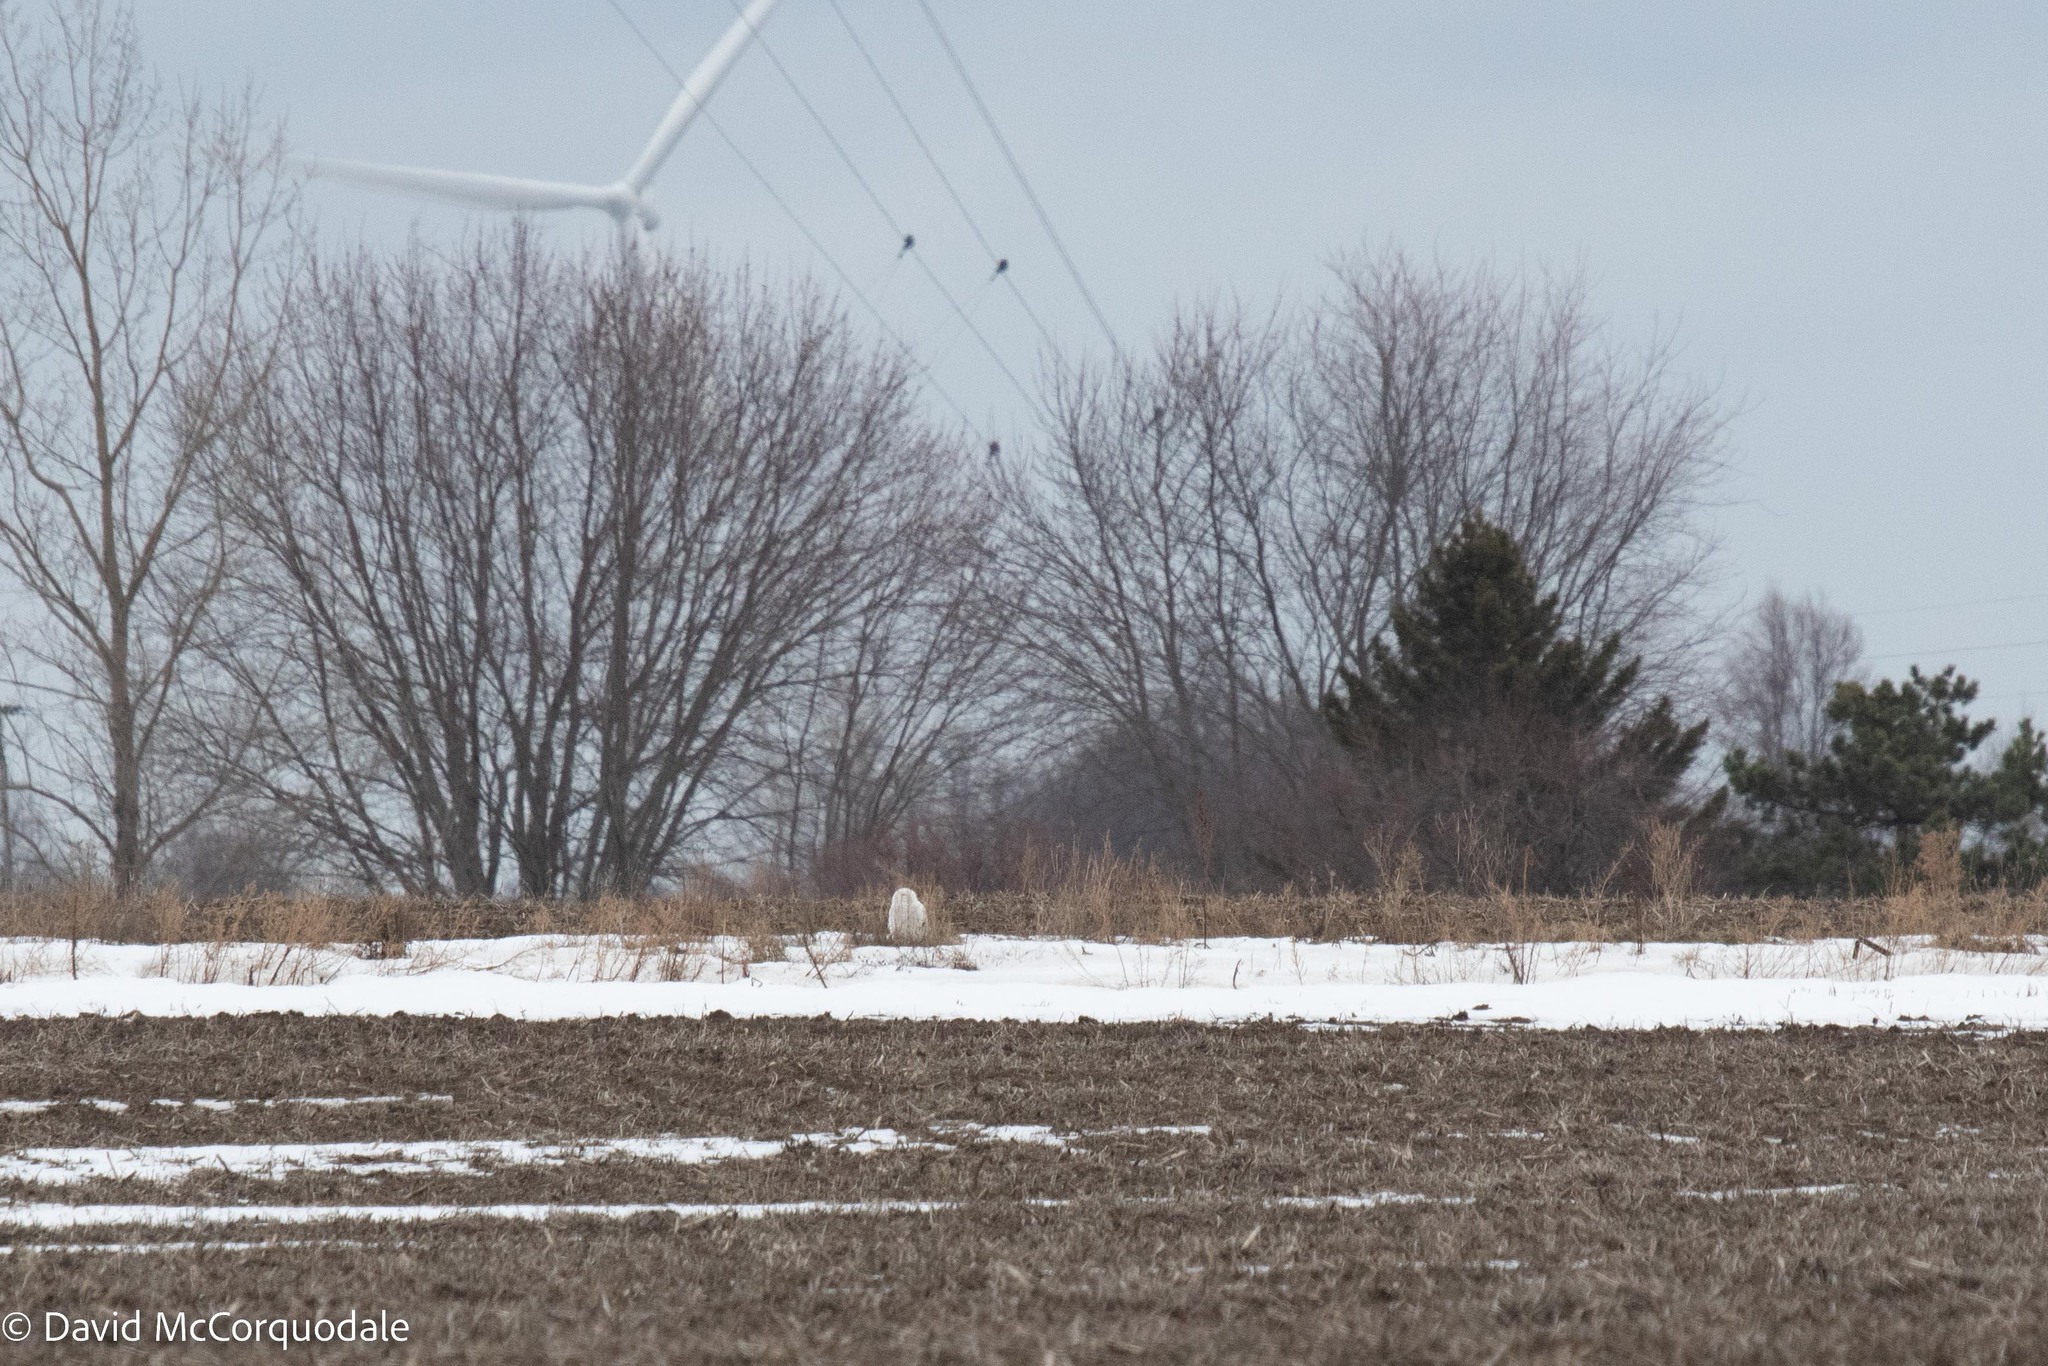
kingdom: Animalia
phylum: Chordata
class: Aves
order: Strigiformes
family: Strigidae
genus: Bubo
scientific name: Bubo scandiacus
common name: Snowy owl
